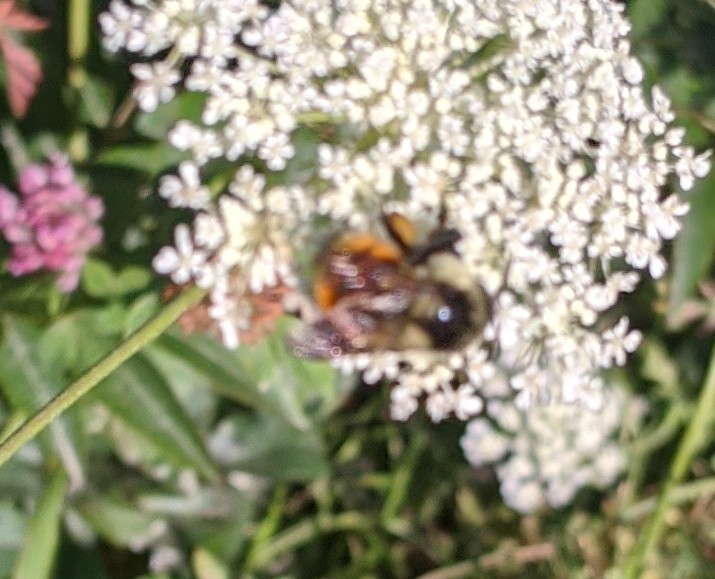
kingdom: Animalia
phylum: Arthropoda
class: Insecta
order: Hymenoptera
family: Apidae
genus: Bombus
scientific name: Bombus ternarius
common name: Tri-colored bumble bee
